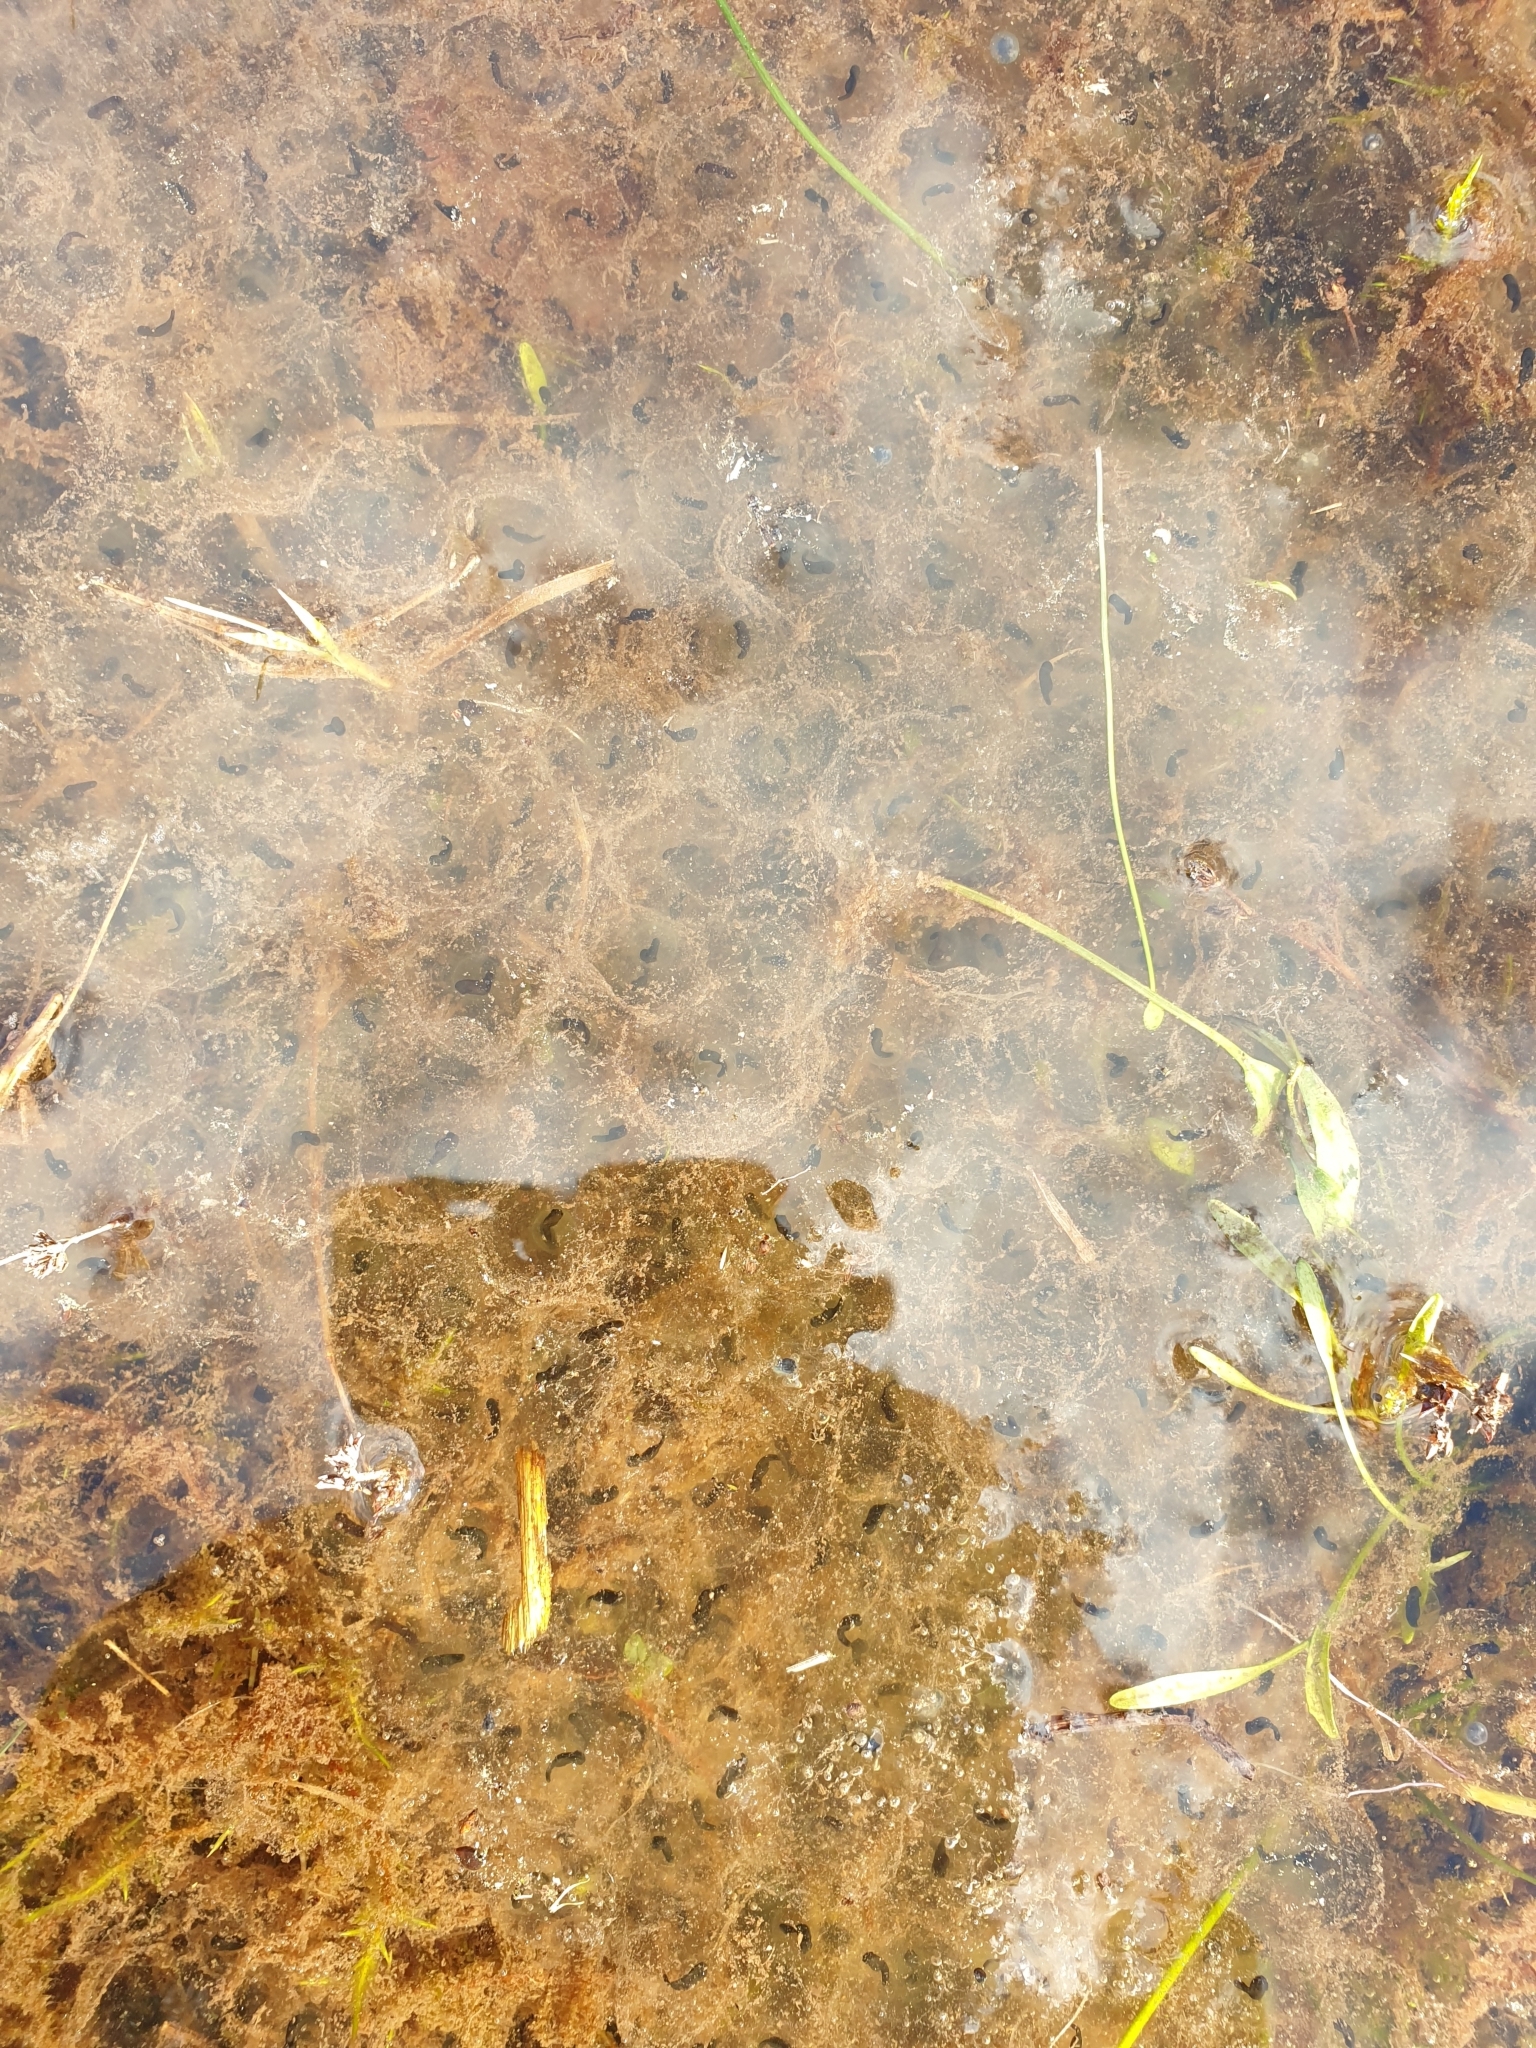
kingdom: Animalia
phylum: Chordata
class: Amphibia
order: Anura
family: Ranidae
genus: Rana
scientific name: Rana temporaria
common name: Common frog
